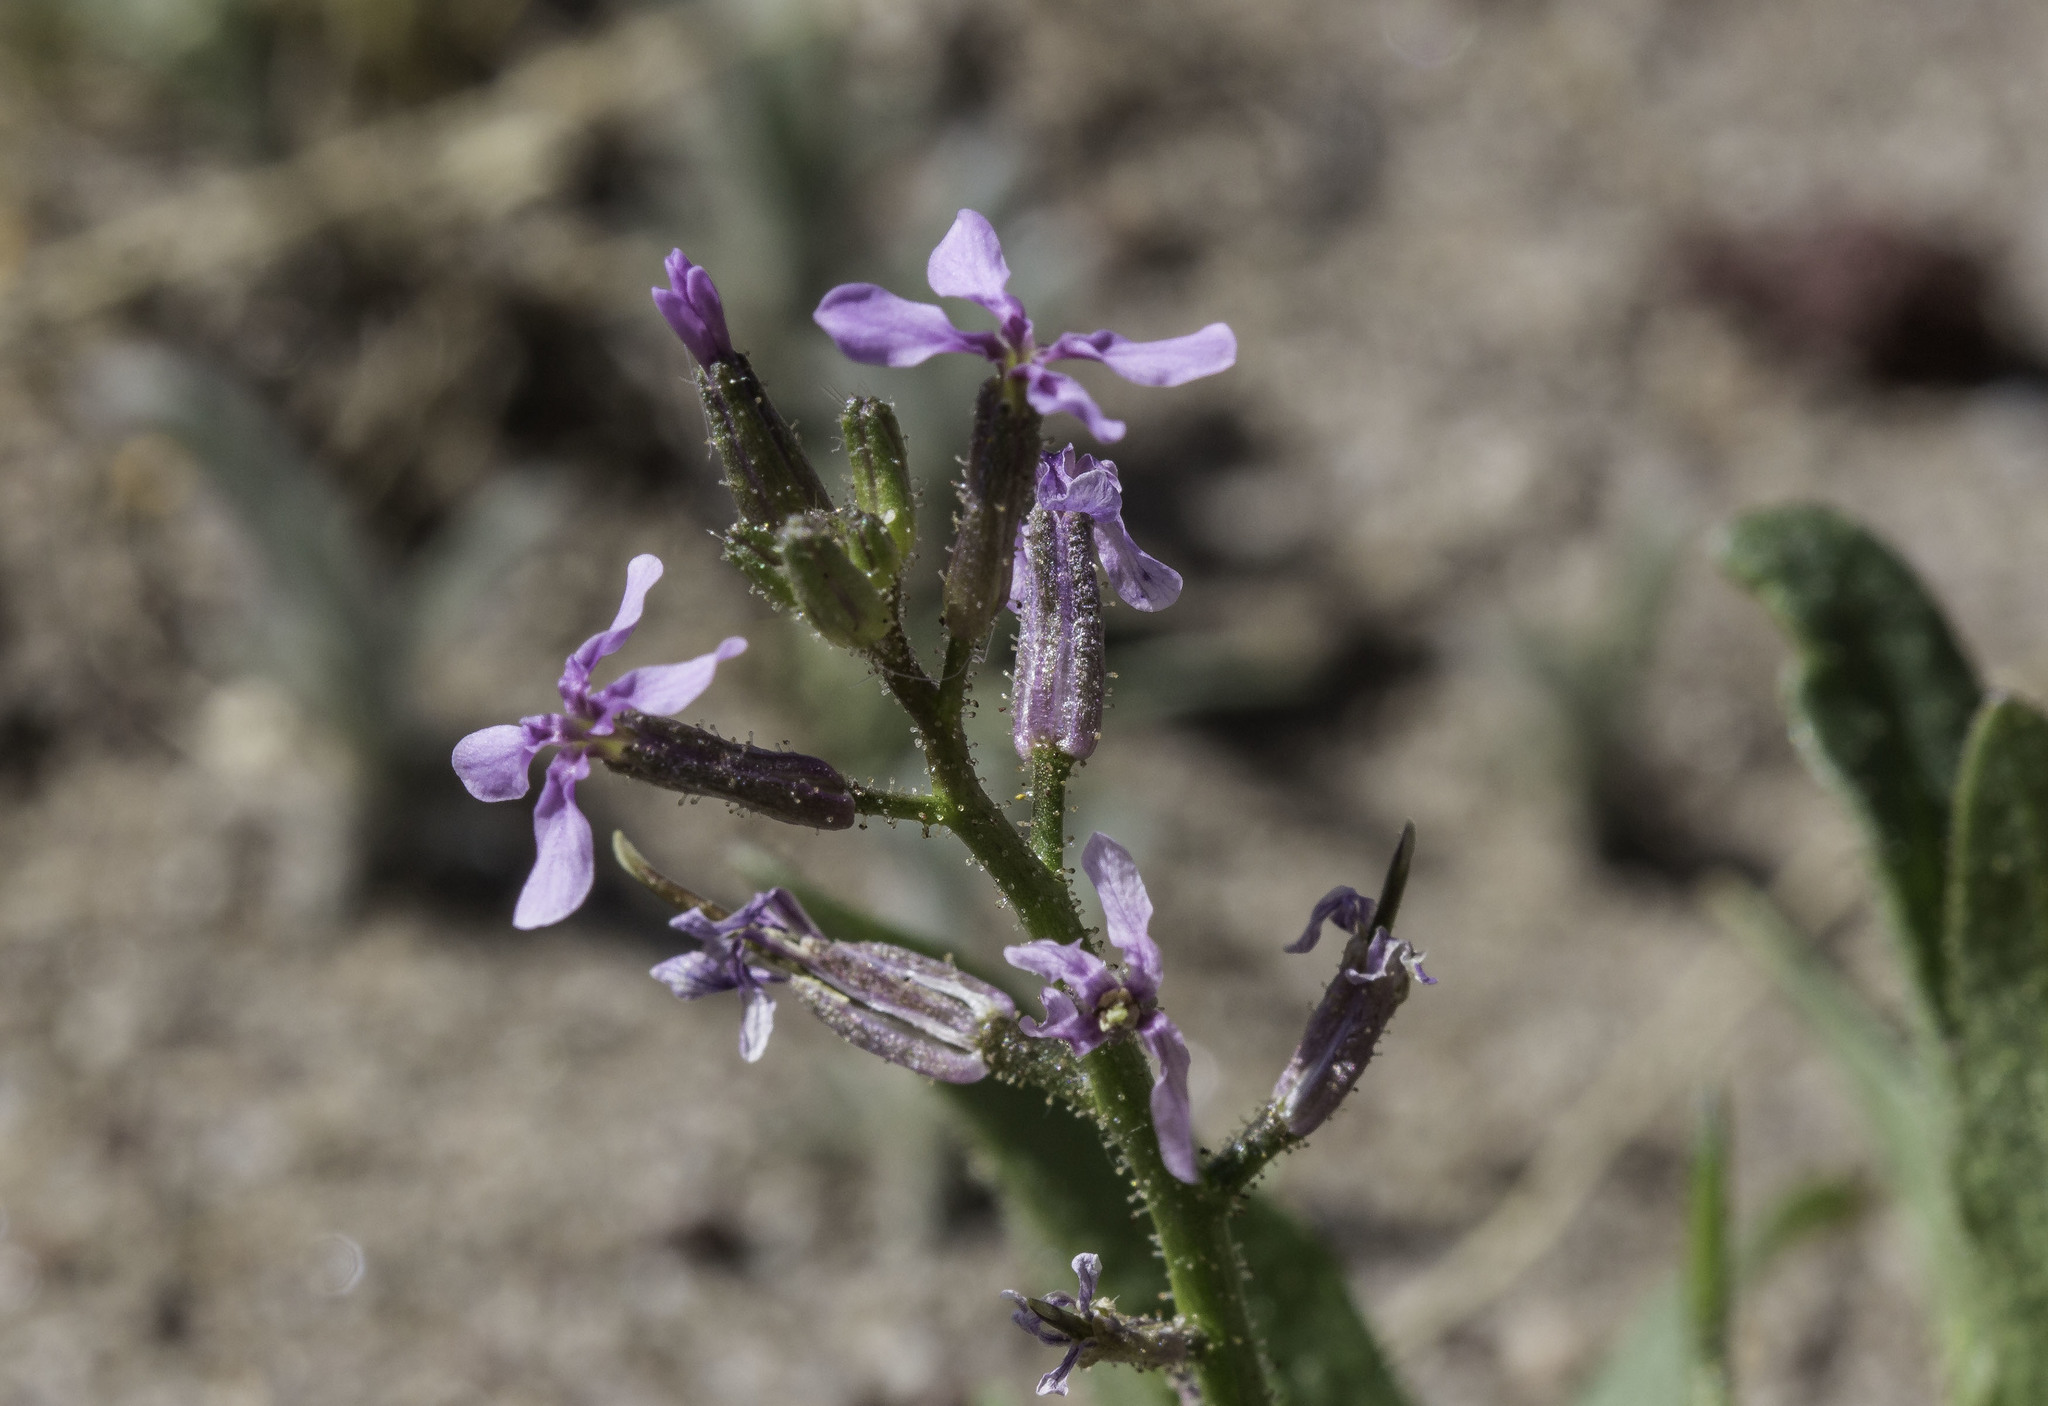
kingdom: Plantae
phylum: Tracheophyta
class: Magnoliopsida
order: Brassicales
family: Brassicaceae
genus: Chorispora
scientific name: Chorispora tenella
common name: Crossflower
